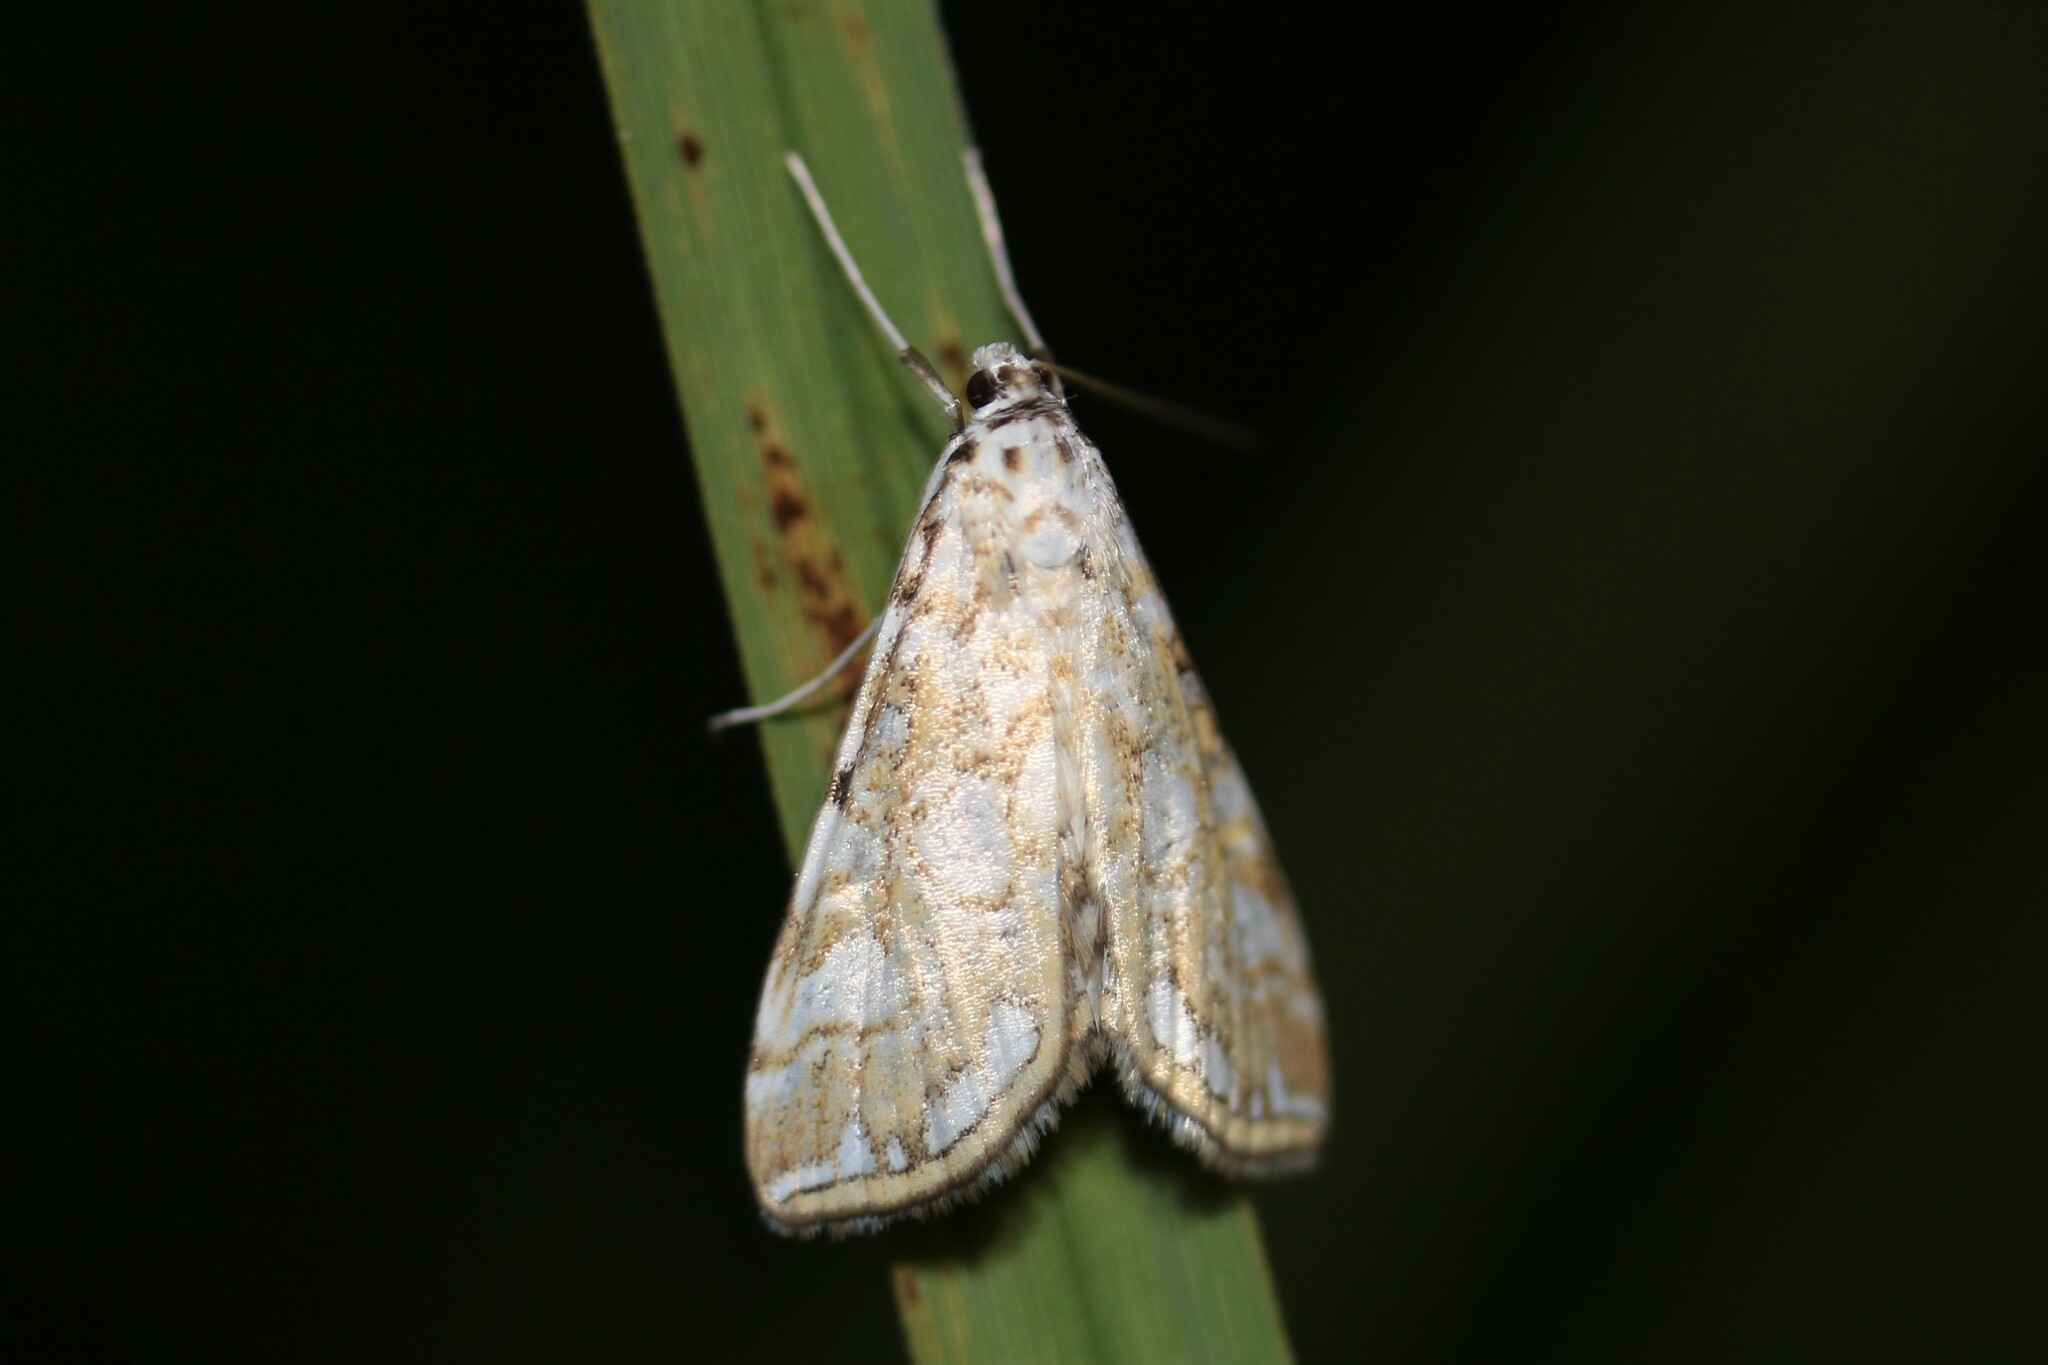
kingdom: Animalia
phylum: Arthropoda
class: Insecta
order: Lepidoptera
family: Crambidae
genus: Elophila
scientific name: Elophila nymphaeata
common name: Brown china-mark
